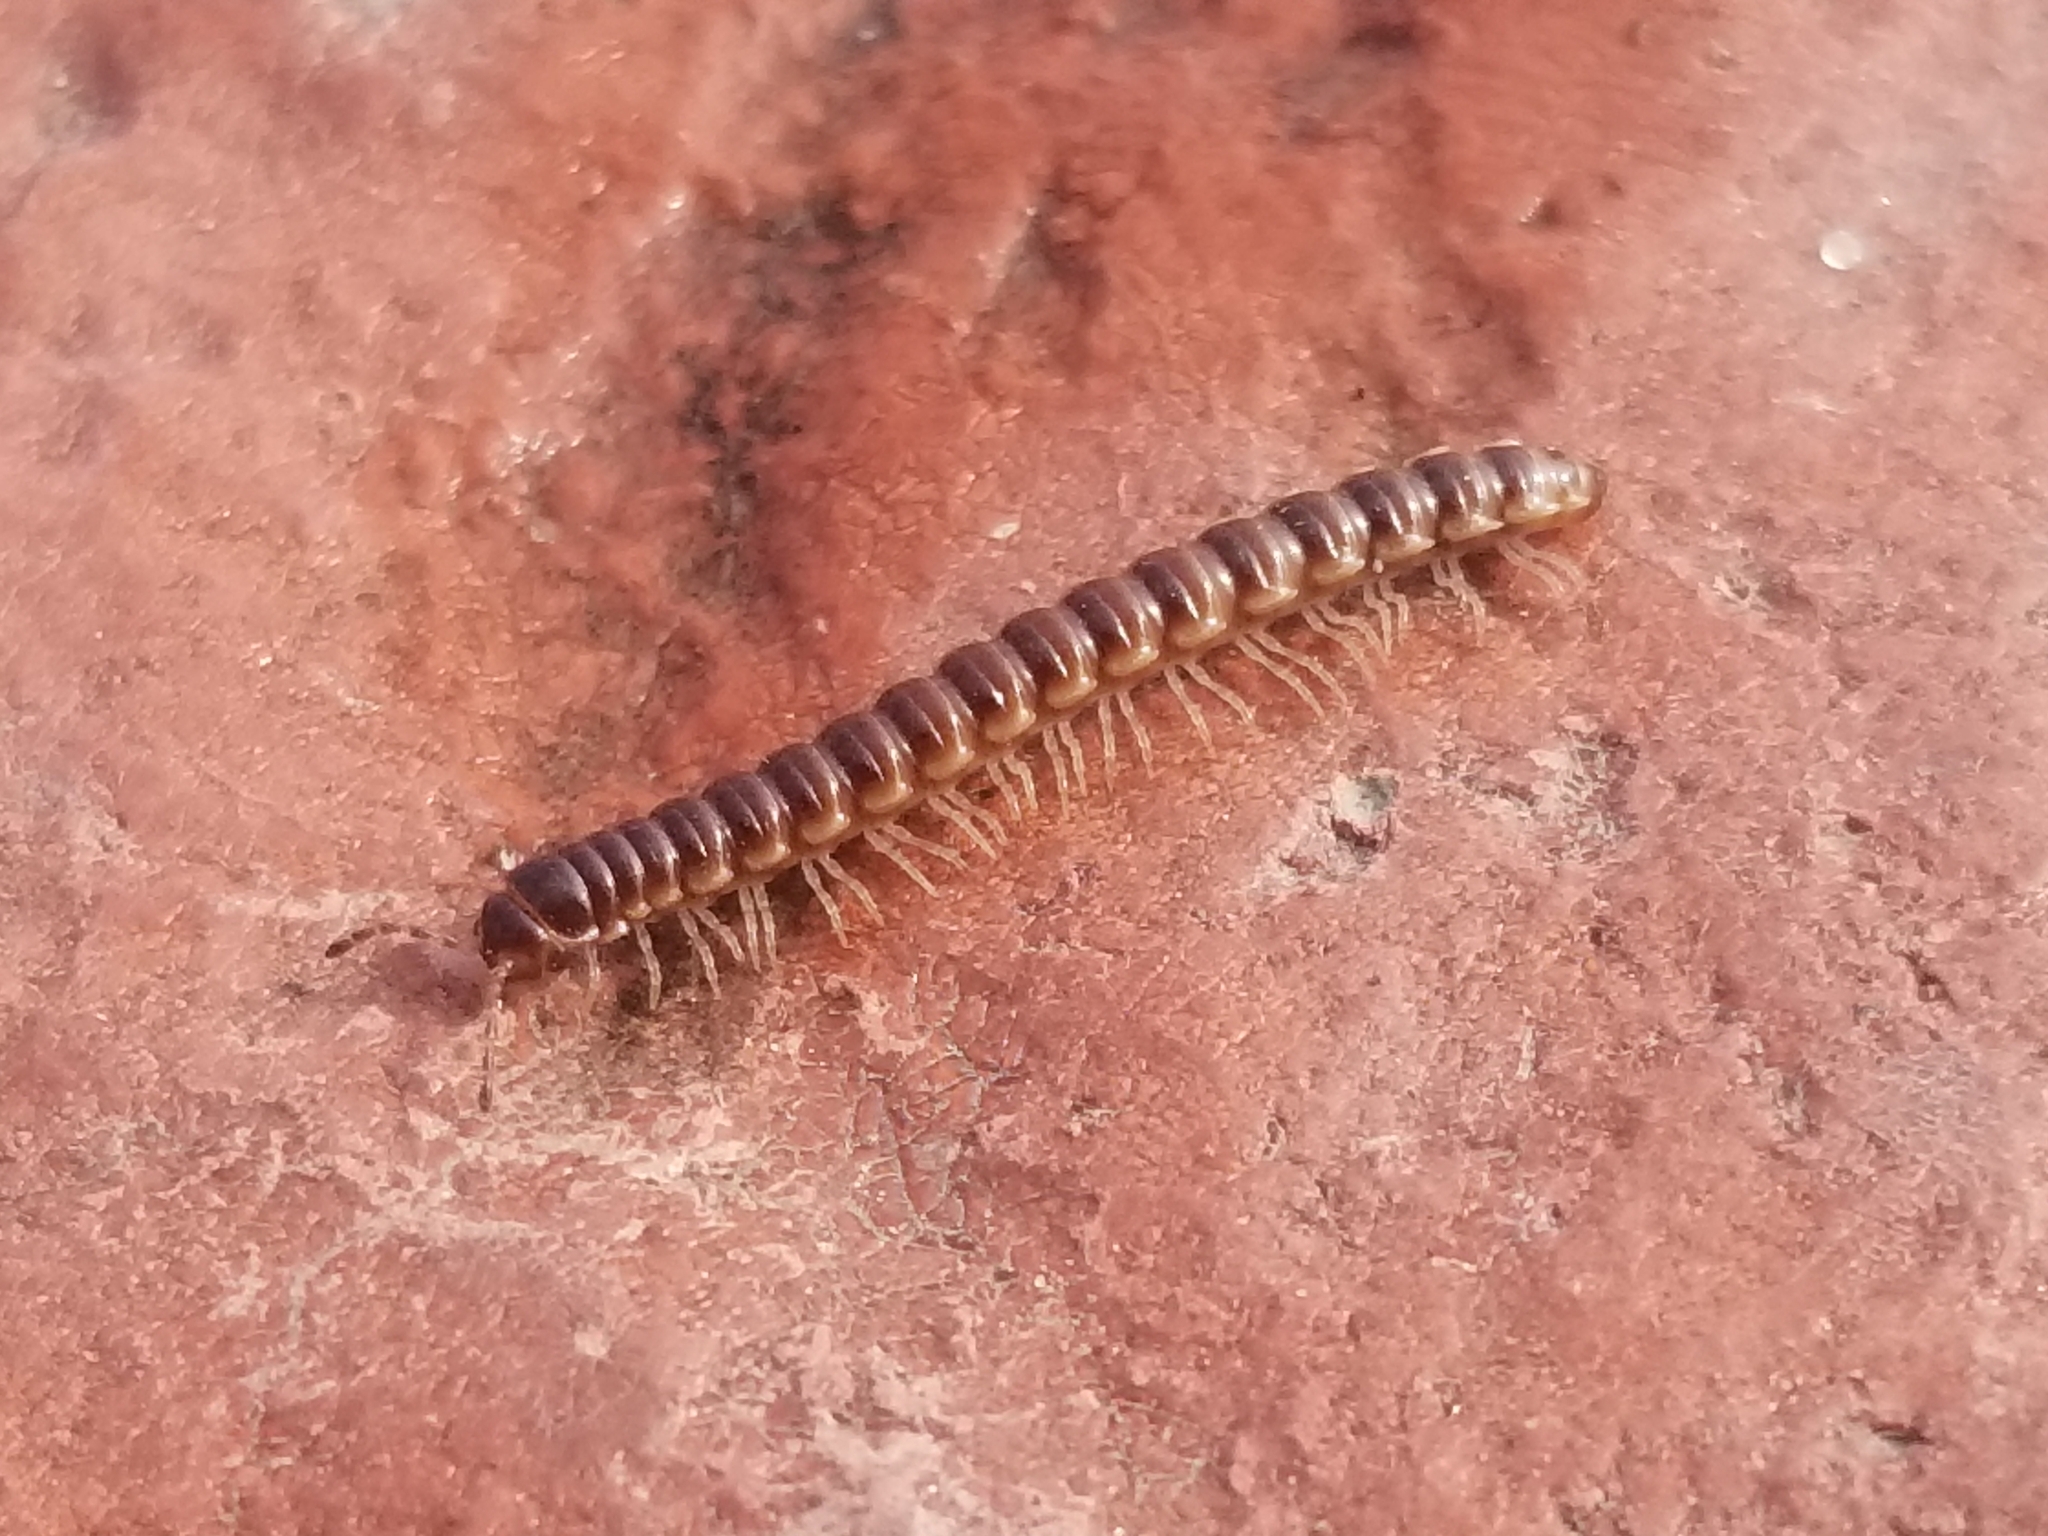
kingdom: Animalia
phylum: Arthropoda
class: Diplopoda
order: Polydesmida
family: Paradoxosomatidae
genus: Oxidus
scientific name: Oxidus gracilis
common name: Greenhouse millipede
